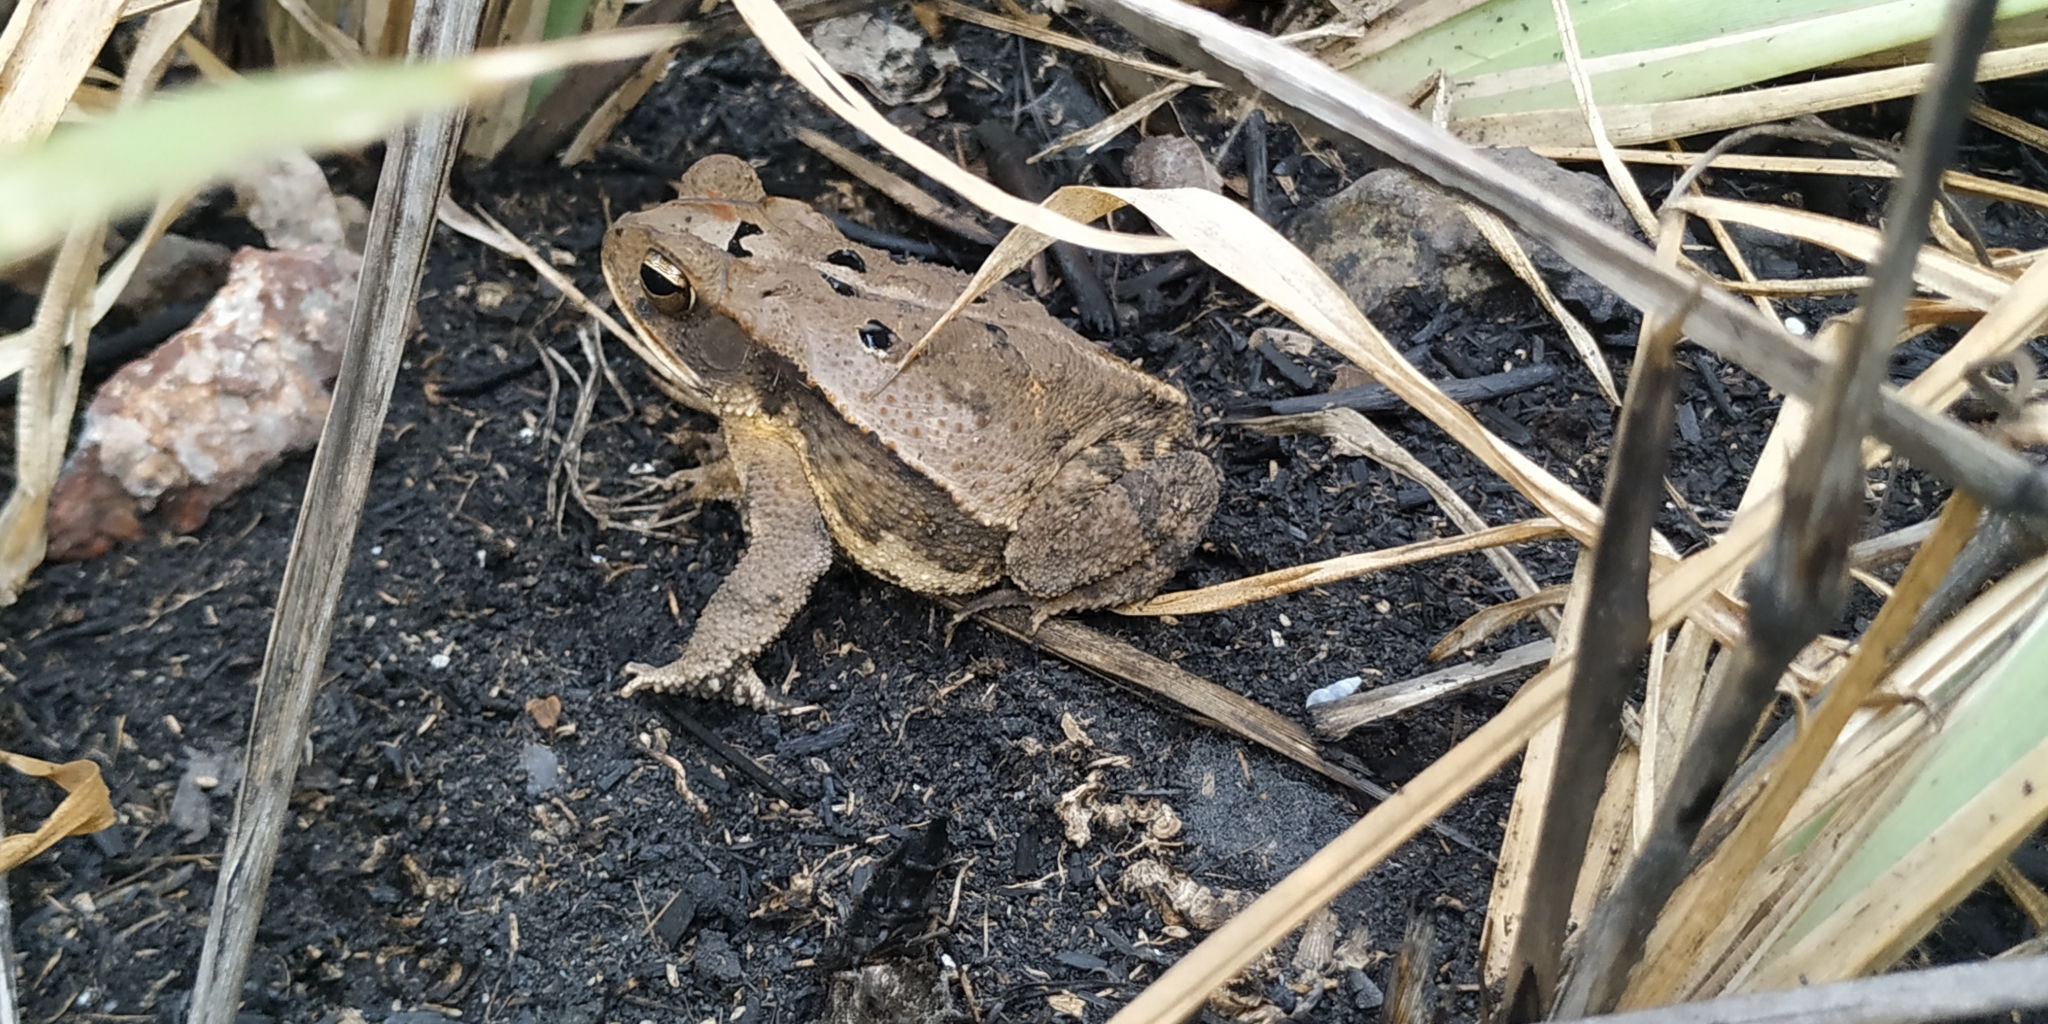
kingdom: Animalia
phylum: Chordata
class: Amphibia
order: Anura
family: Bufonidae
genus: Incilius
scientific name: Incilius valliceps
